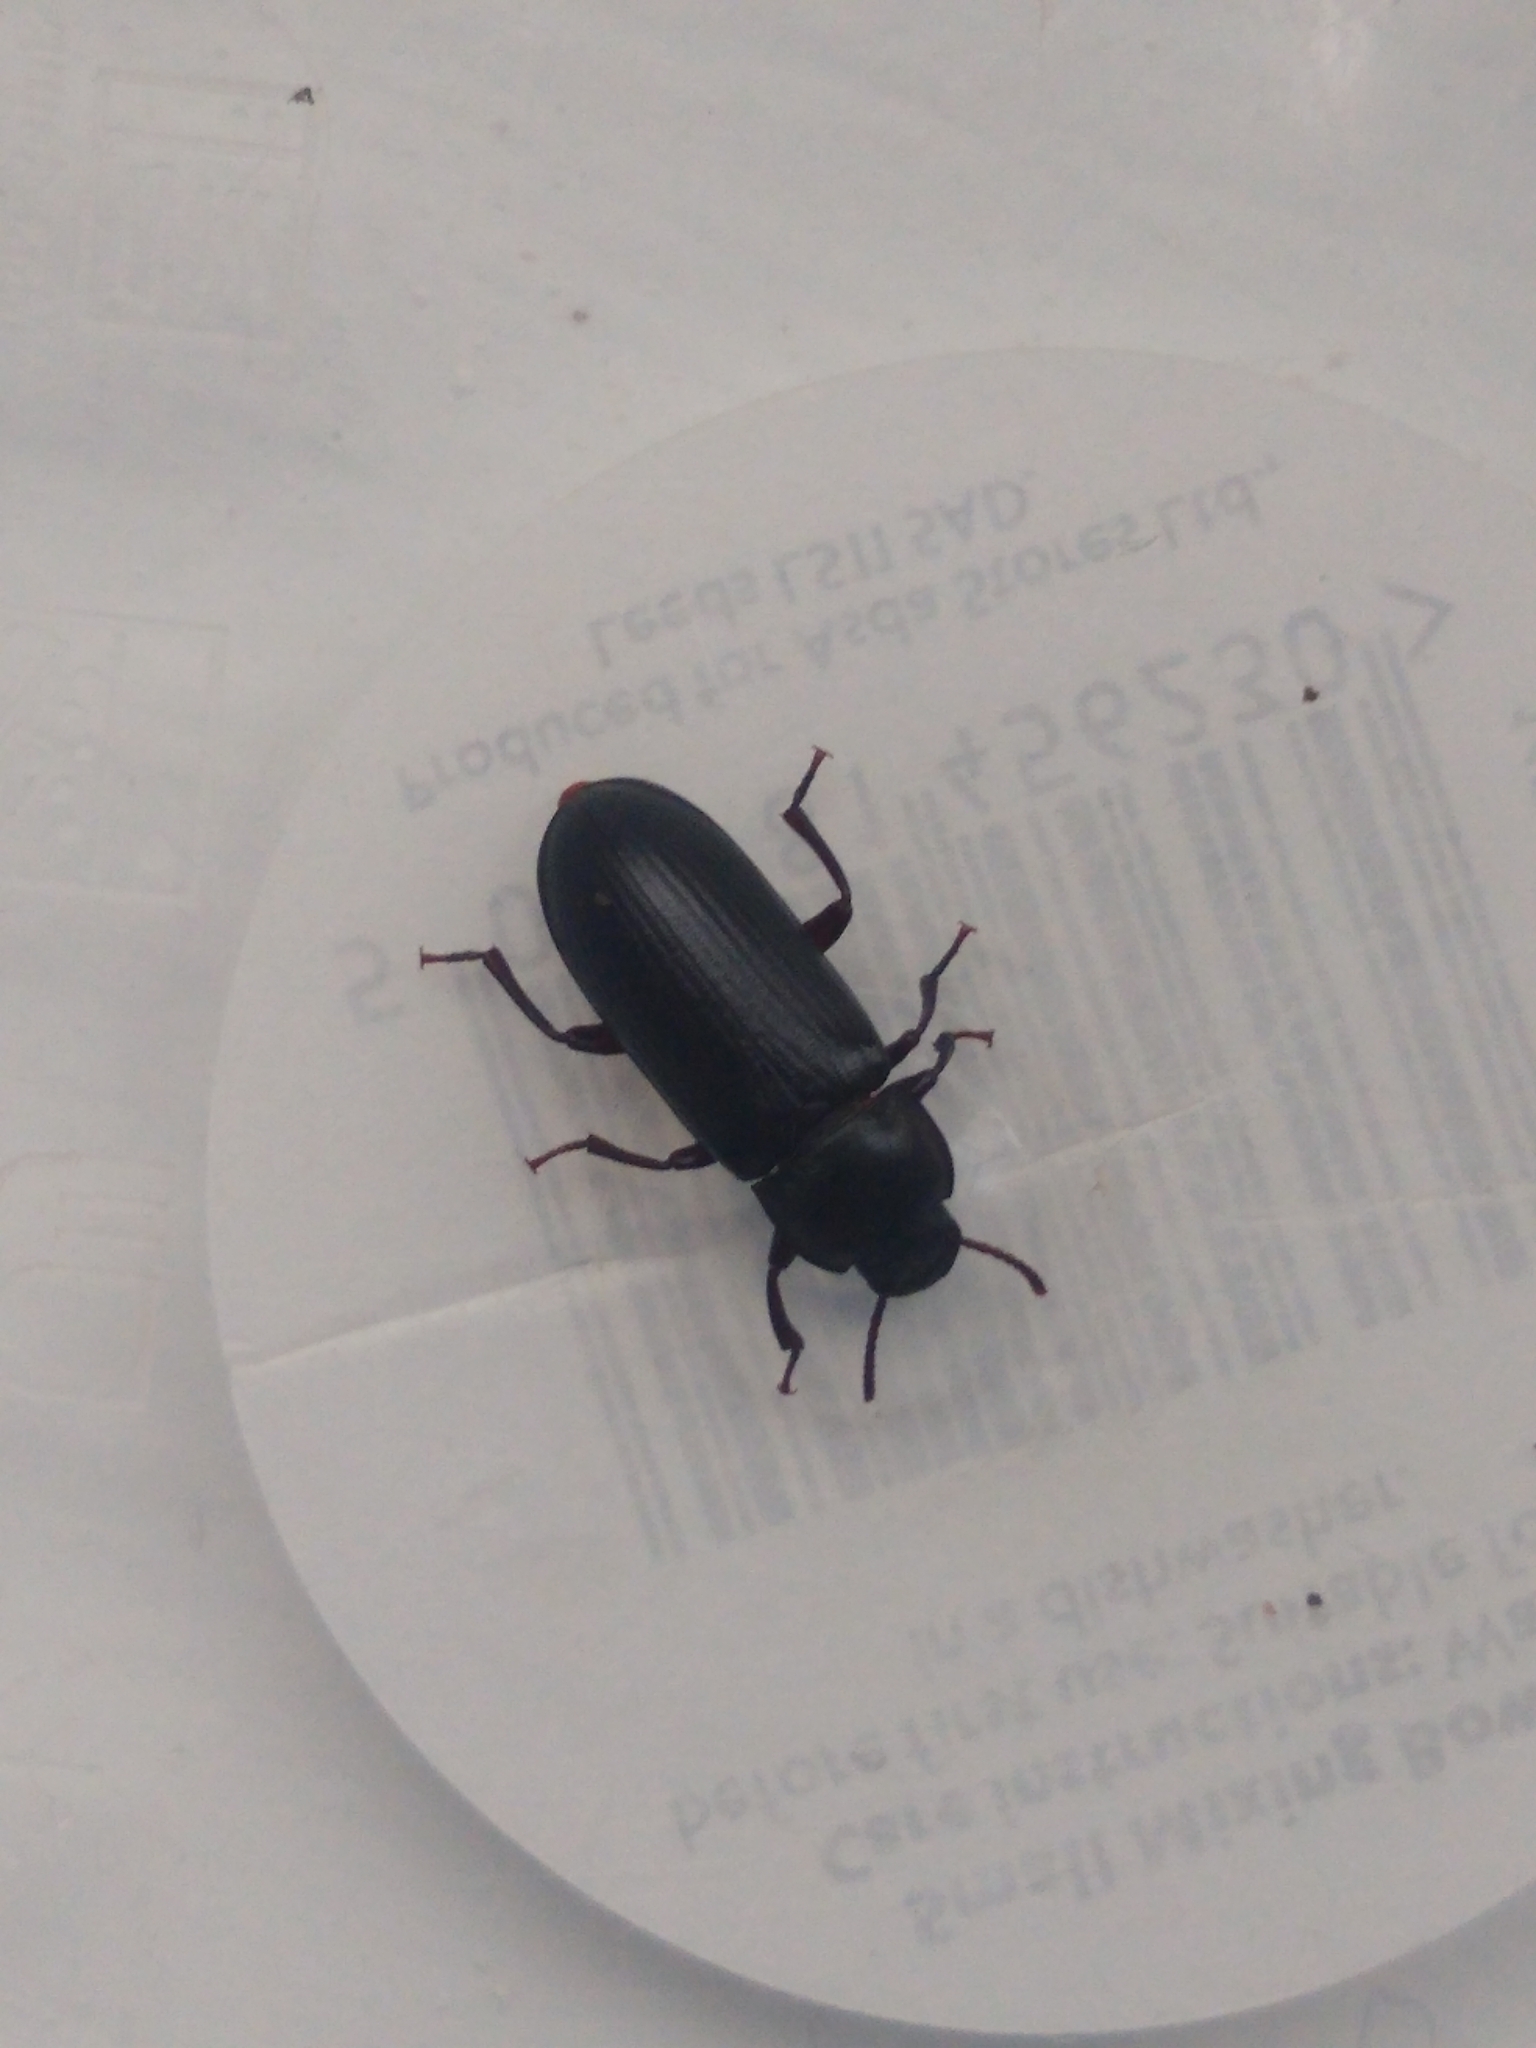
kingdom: Animalia
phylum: Arthropoda
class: Insecta
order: Coleoptera
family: Tenebrionidae
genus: Tenebrio
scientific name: Tenebrio molitor
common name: Hardback beetle
